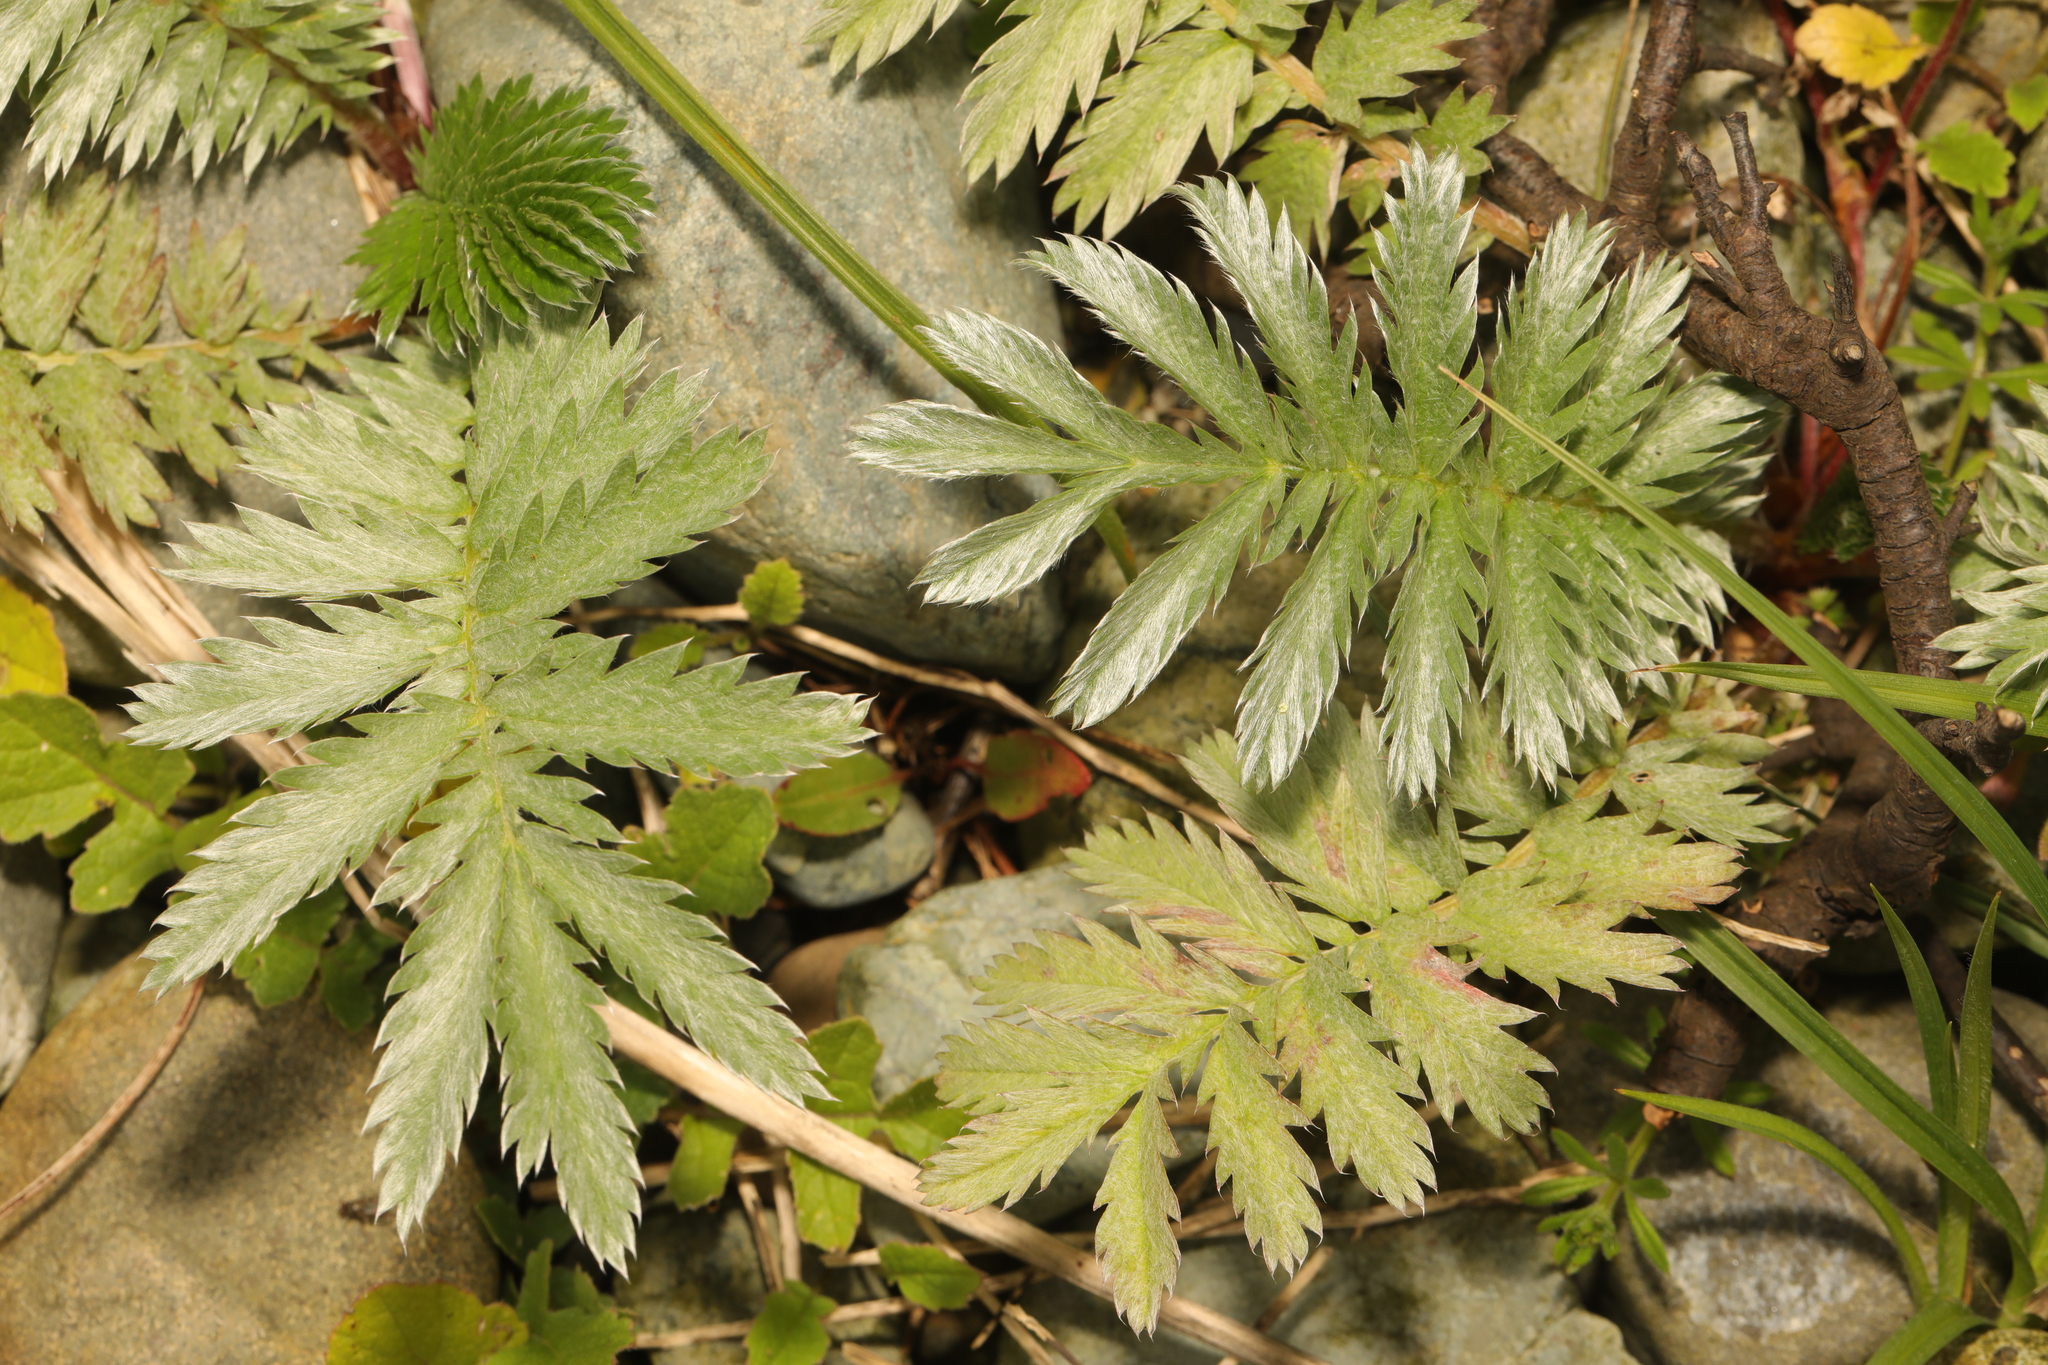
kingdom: Plantae
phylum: Tracheophyta
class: Magnoliopsida
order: Rosales
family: Rosaceae
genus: Argentina
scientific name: Argentina anserina
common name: Common silverweed
